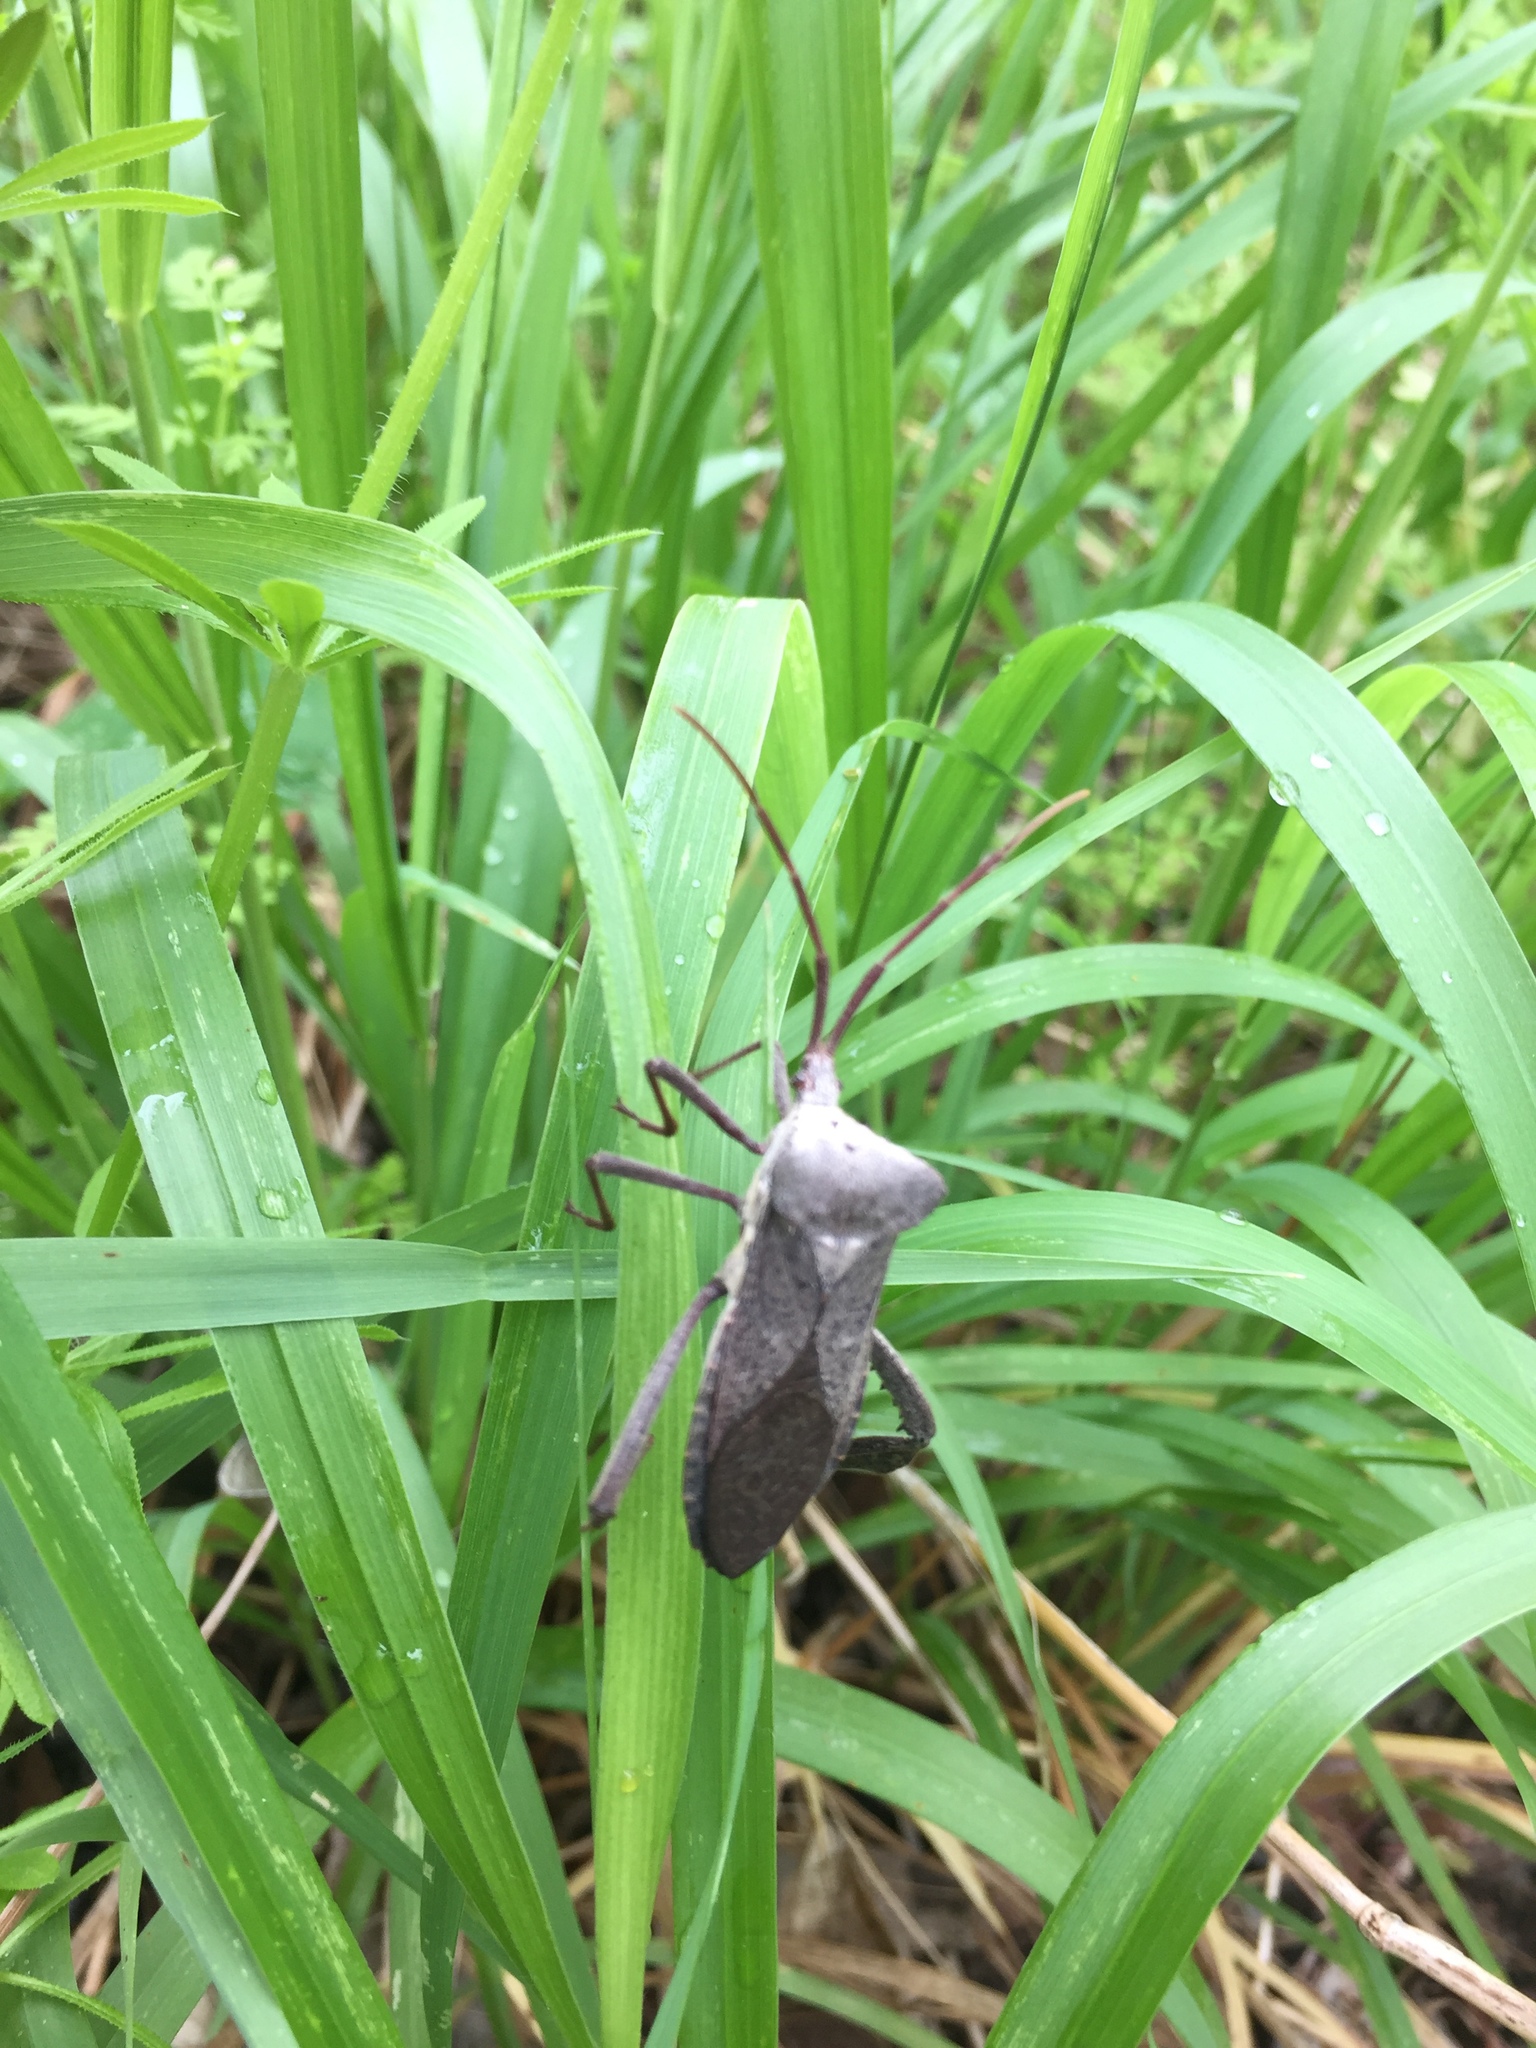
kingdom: Animalia
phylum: Arthropoda
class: Insecta
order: Hemiptera
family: Coreidae
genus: Acanthocephala
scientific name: Acanthocephala declivis
